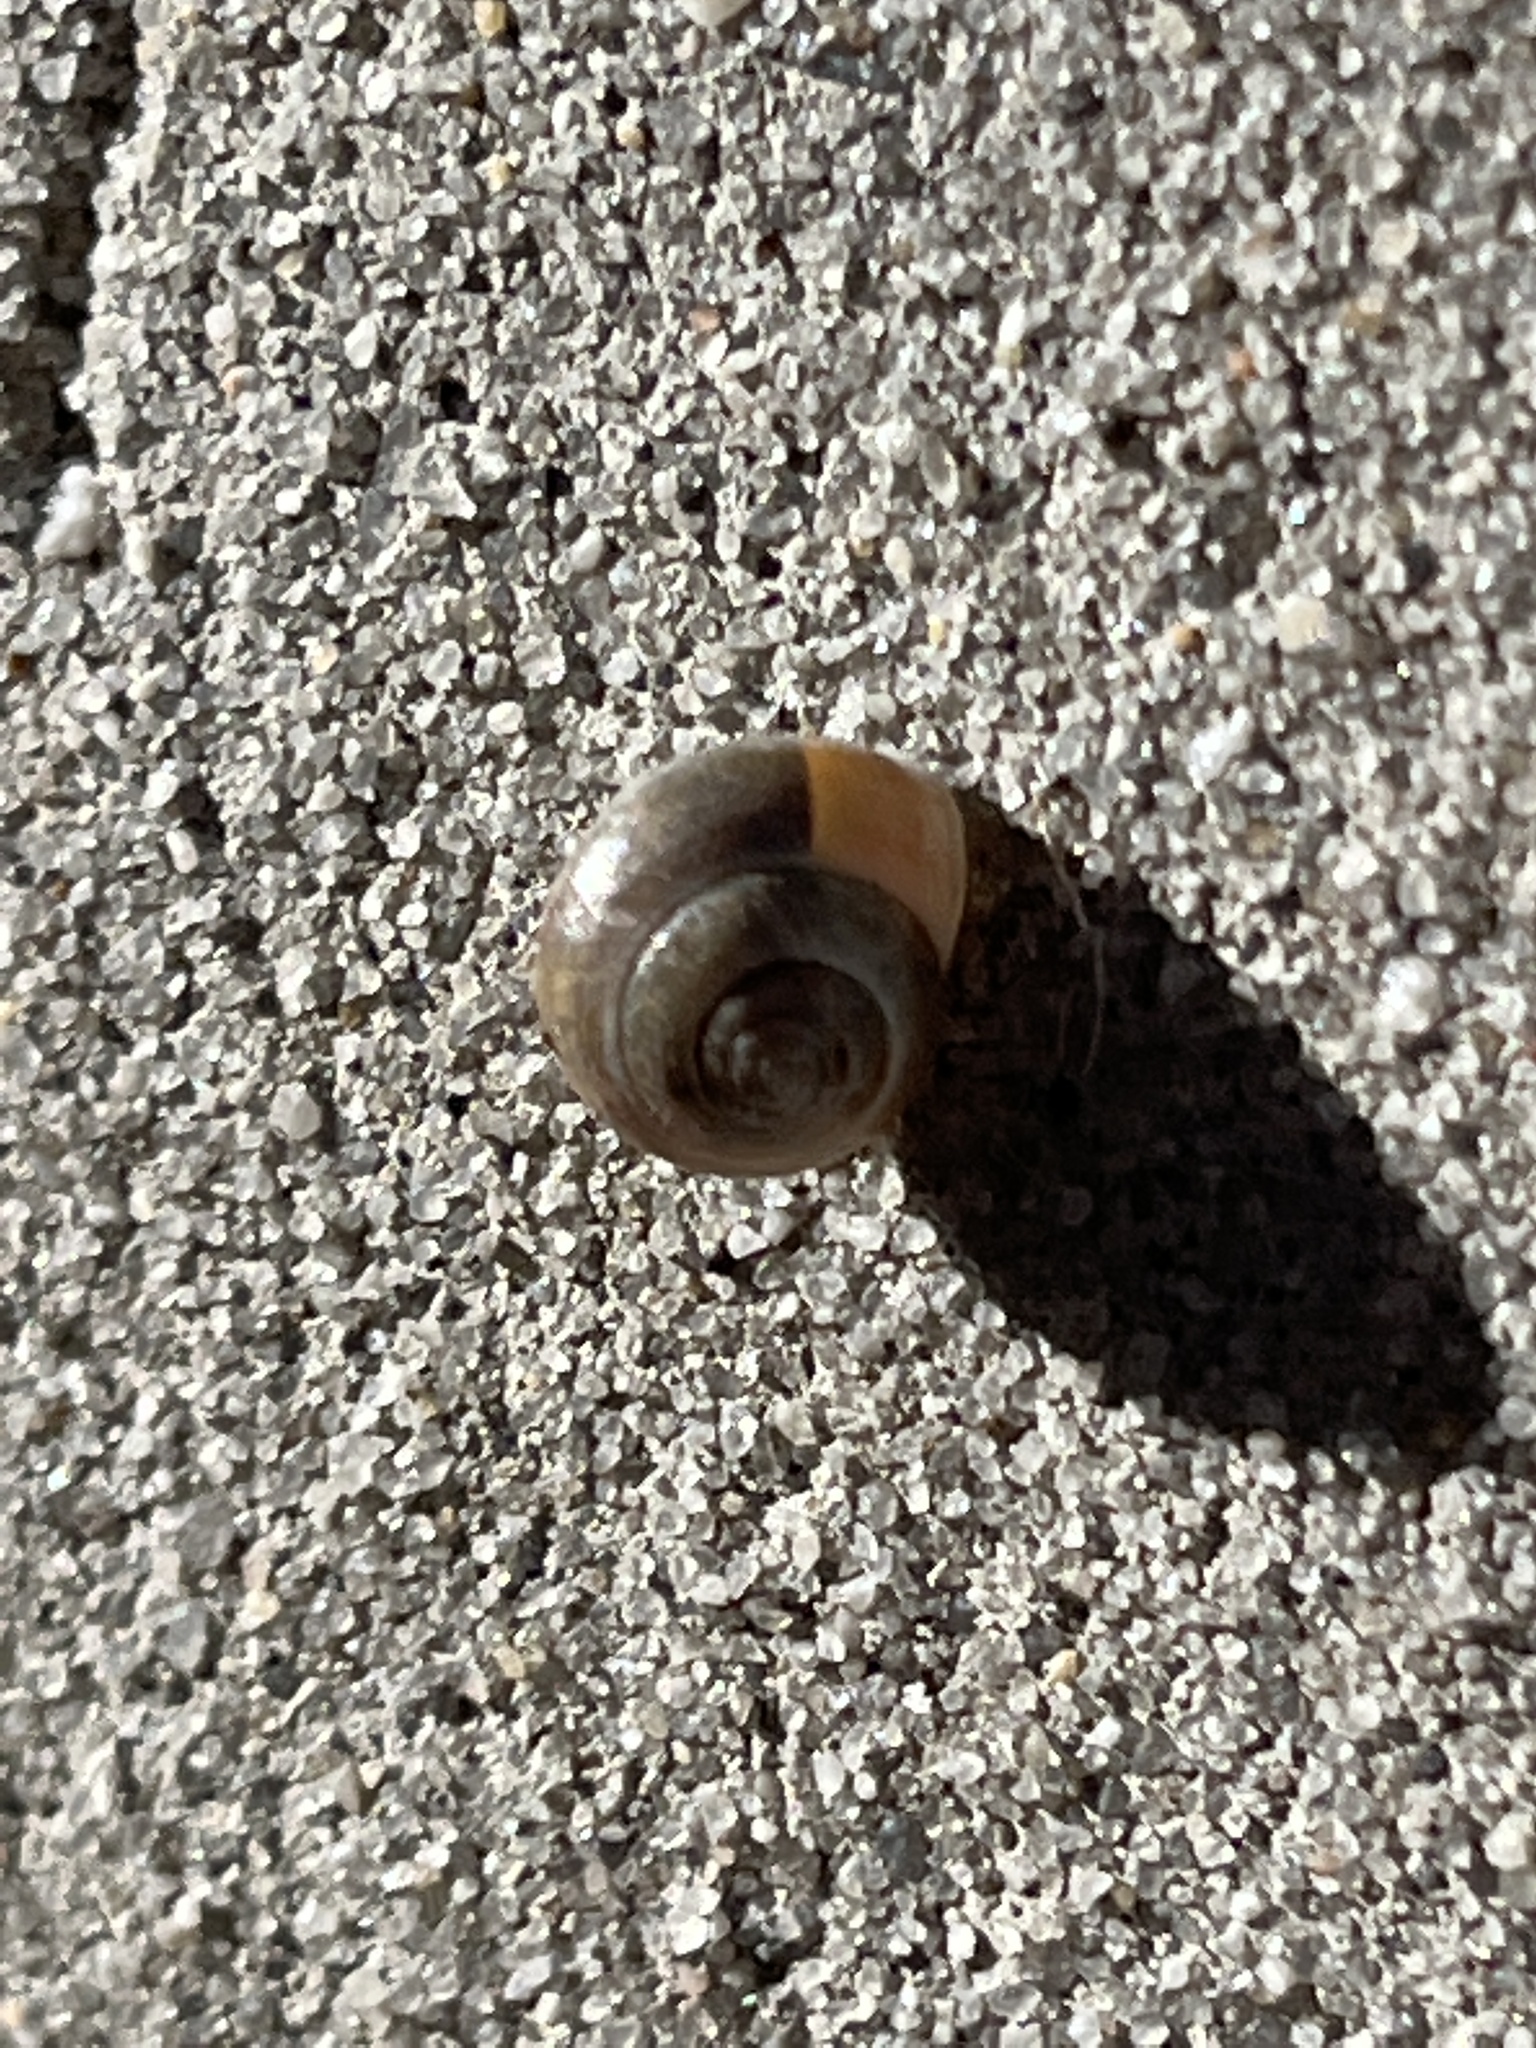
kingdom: Animalia
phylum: Mollusca
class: Gastropoda
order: Cycloneritida
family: Helicinidae
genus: Helicina
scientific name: Helicina orbiculata
